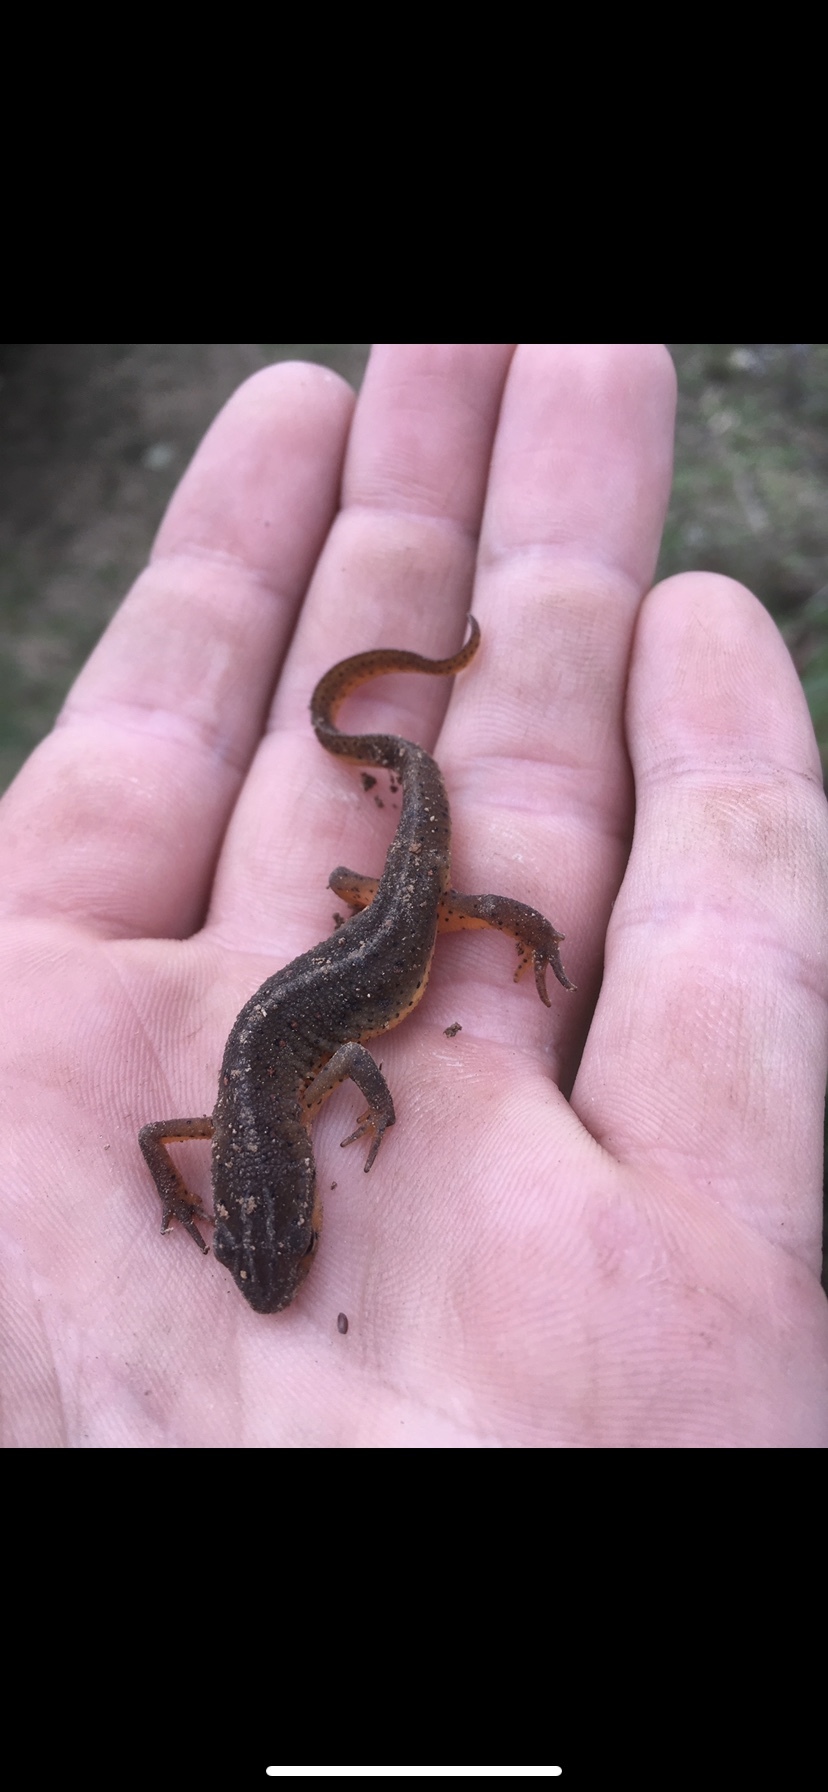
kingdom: Animalia
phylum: Chordata
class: Amphibia
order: Caudata
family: Salamandridae
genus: Notophthalmus
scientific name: Notophthalmus viridescens
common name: Eastern newt
